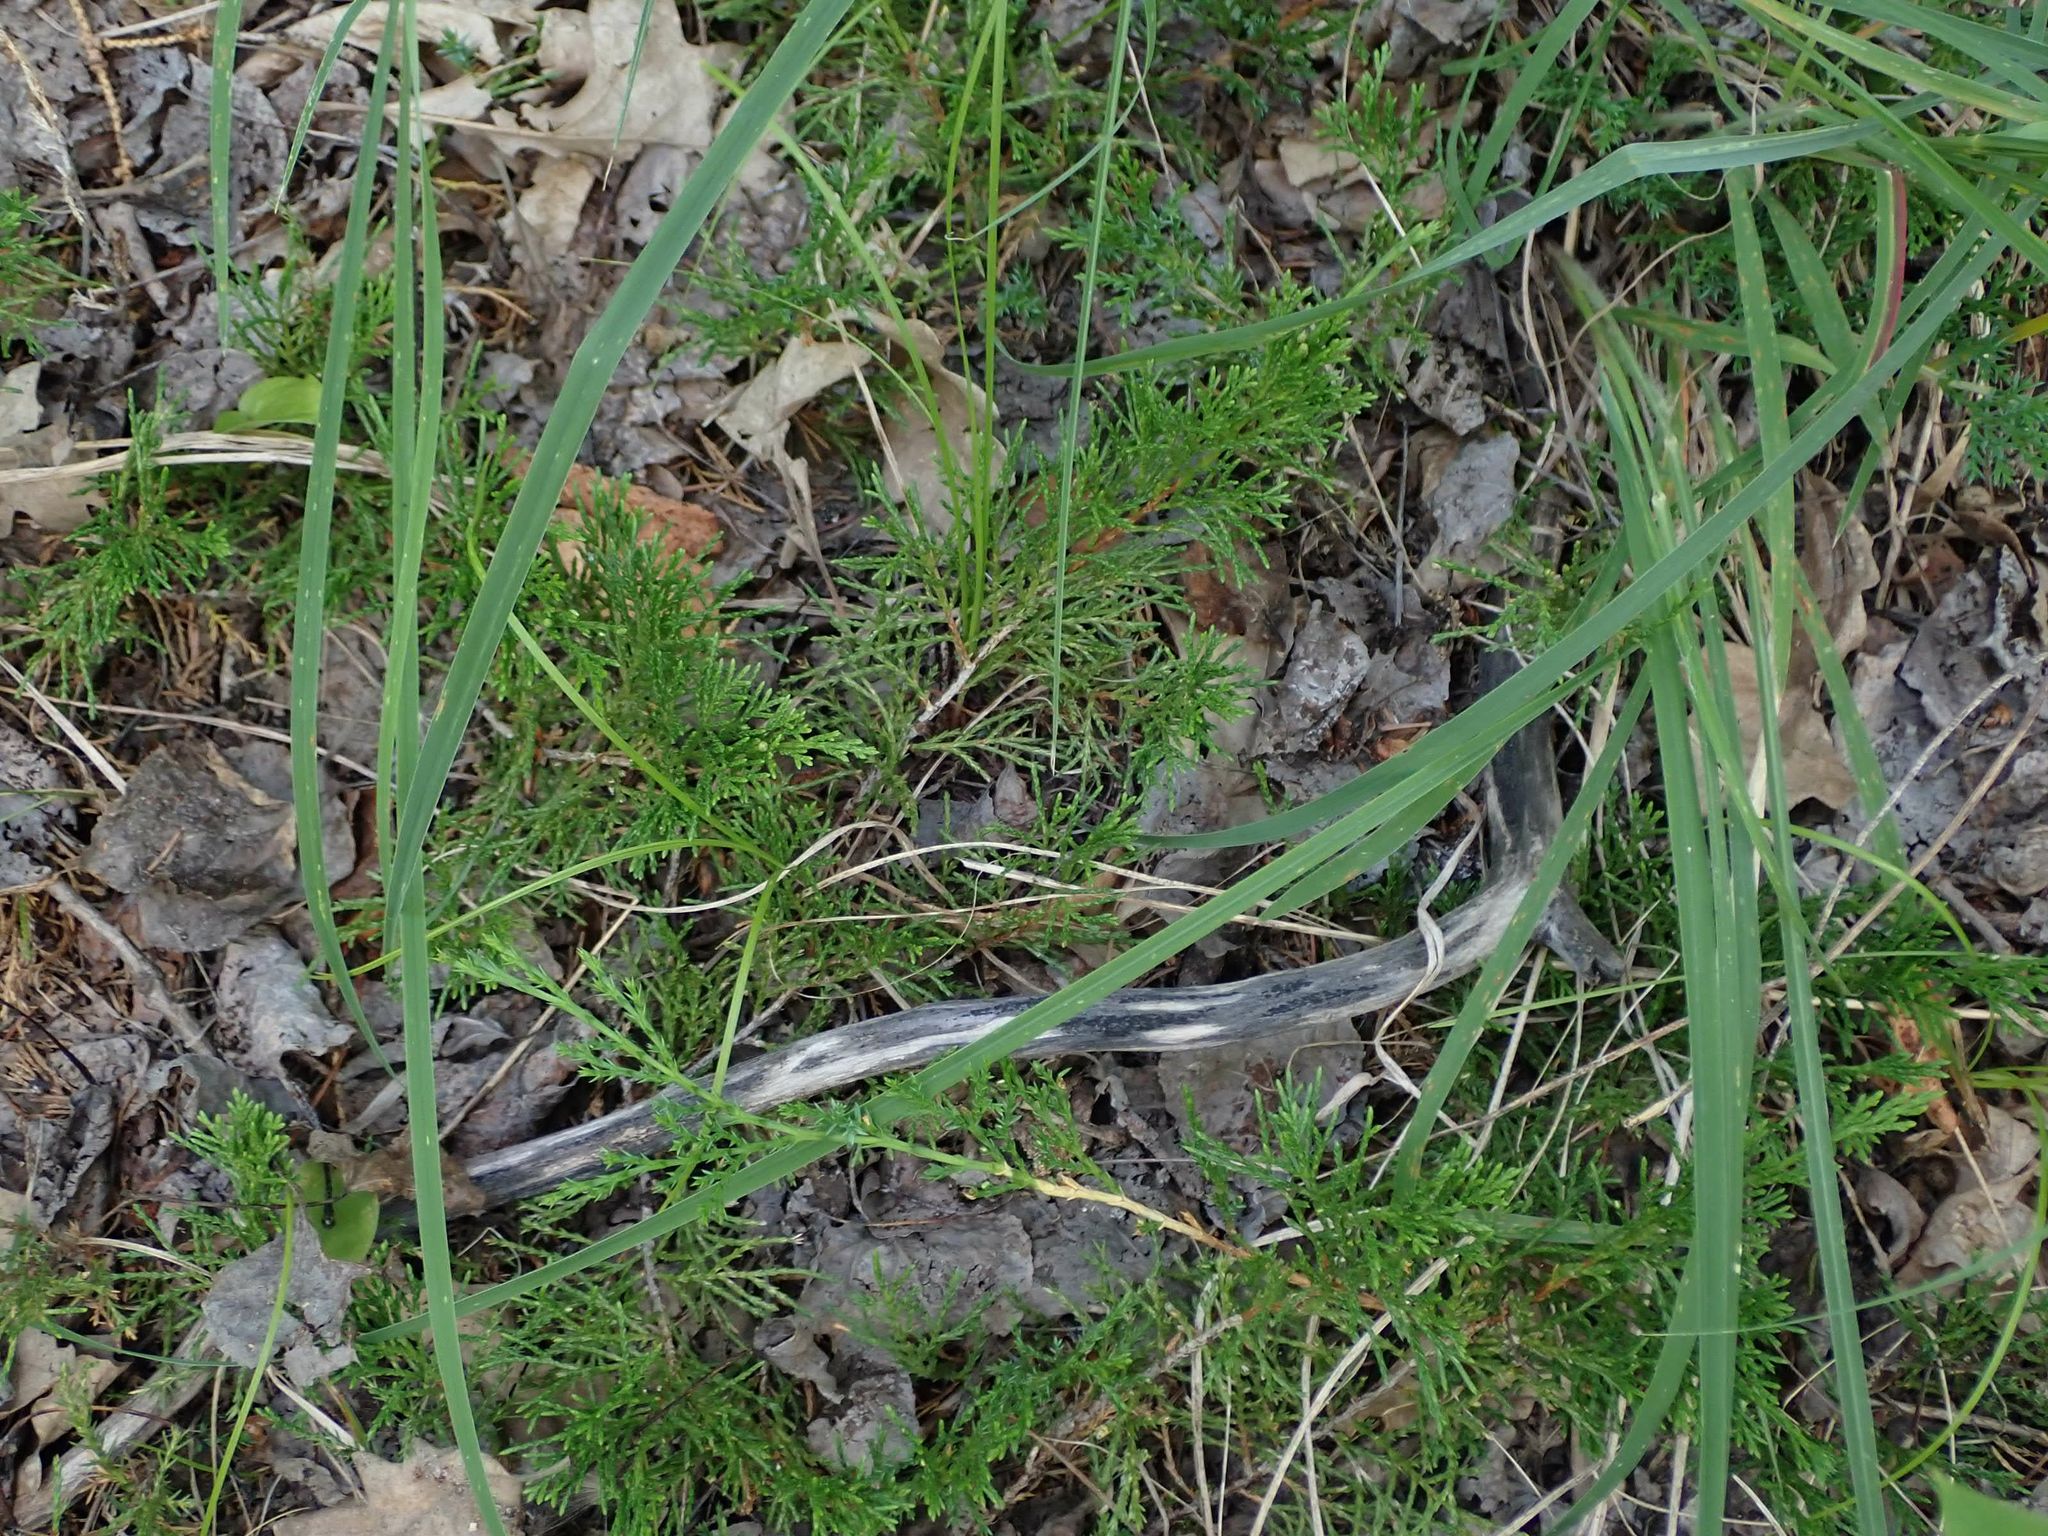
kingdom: Plantae
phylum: Tracheophyta
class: Pinopsida
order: Pinales
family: Cupressaceae
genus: Juniperus
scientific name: Juniperus horizontalis
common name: Creeping juniper
